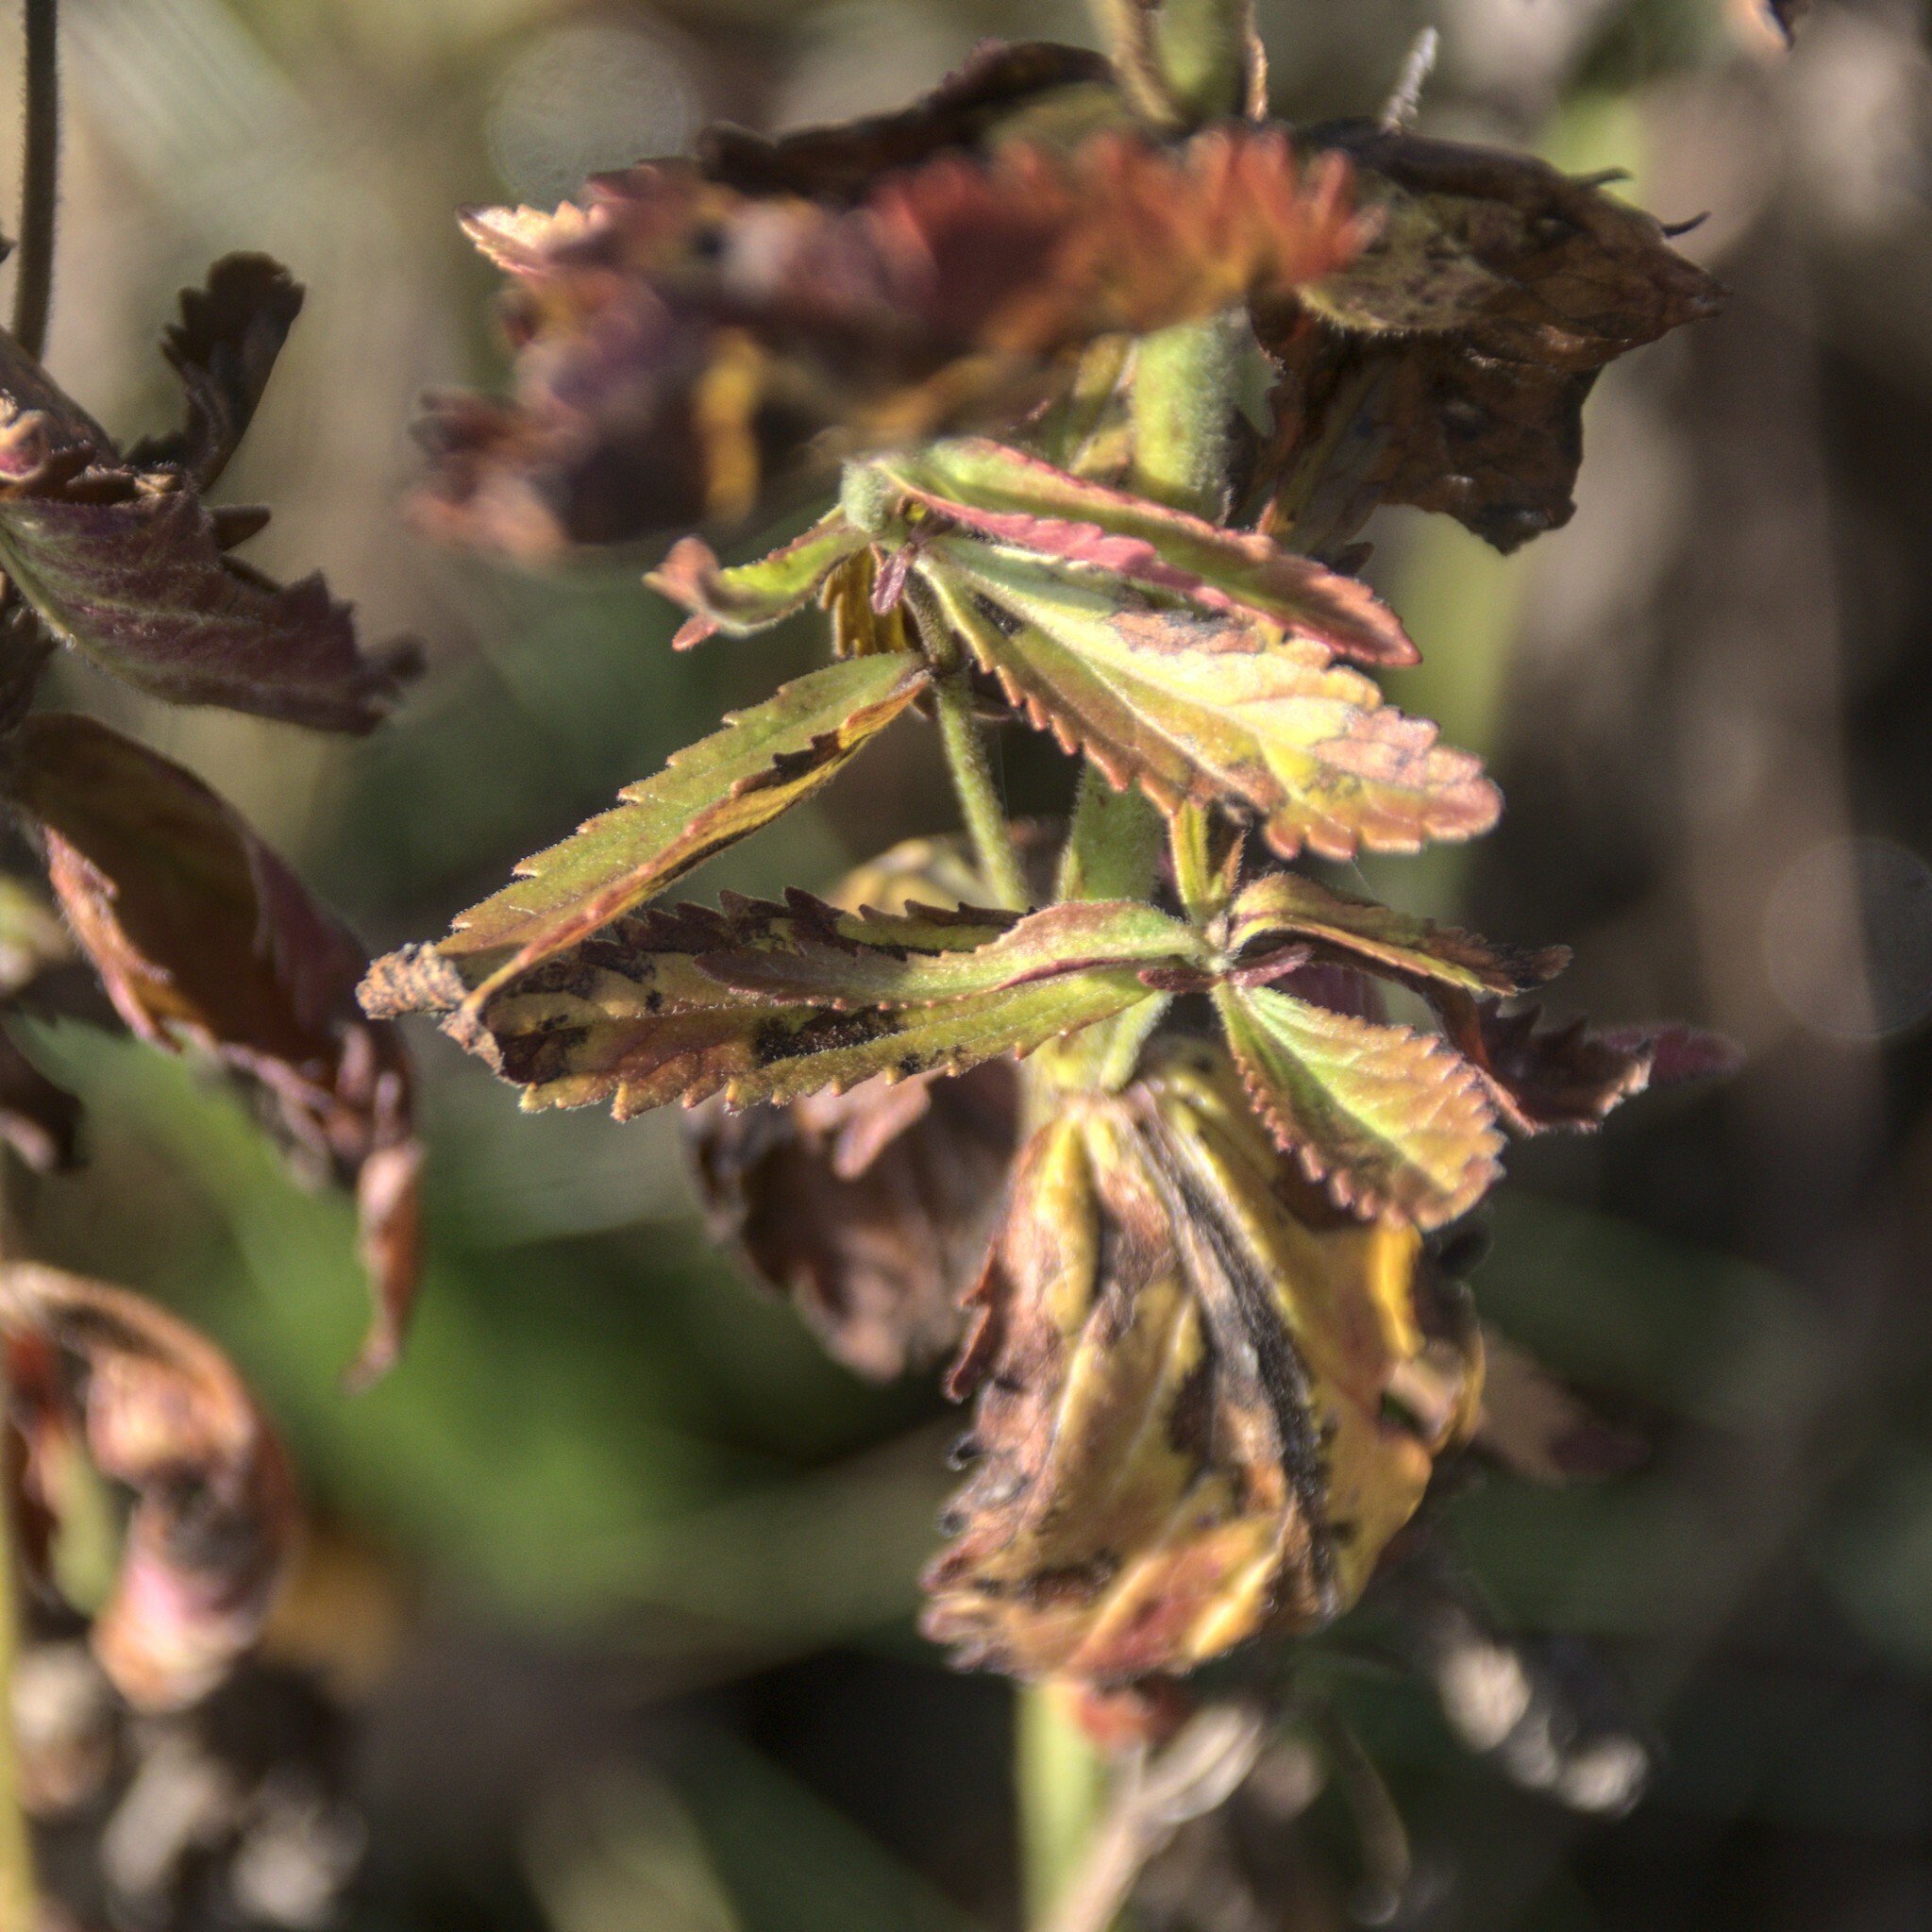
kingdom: Plantae
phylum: Tracheophyta
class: Magnoliopsida
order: Myrtales
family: Lythraceae
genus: Lythrum
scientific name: Lythrum salicaria
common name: Purple loosestrife
